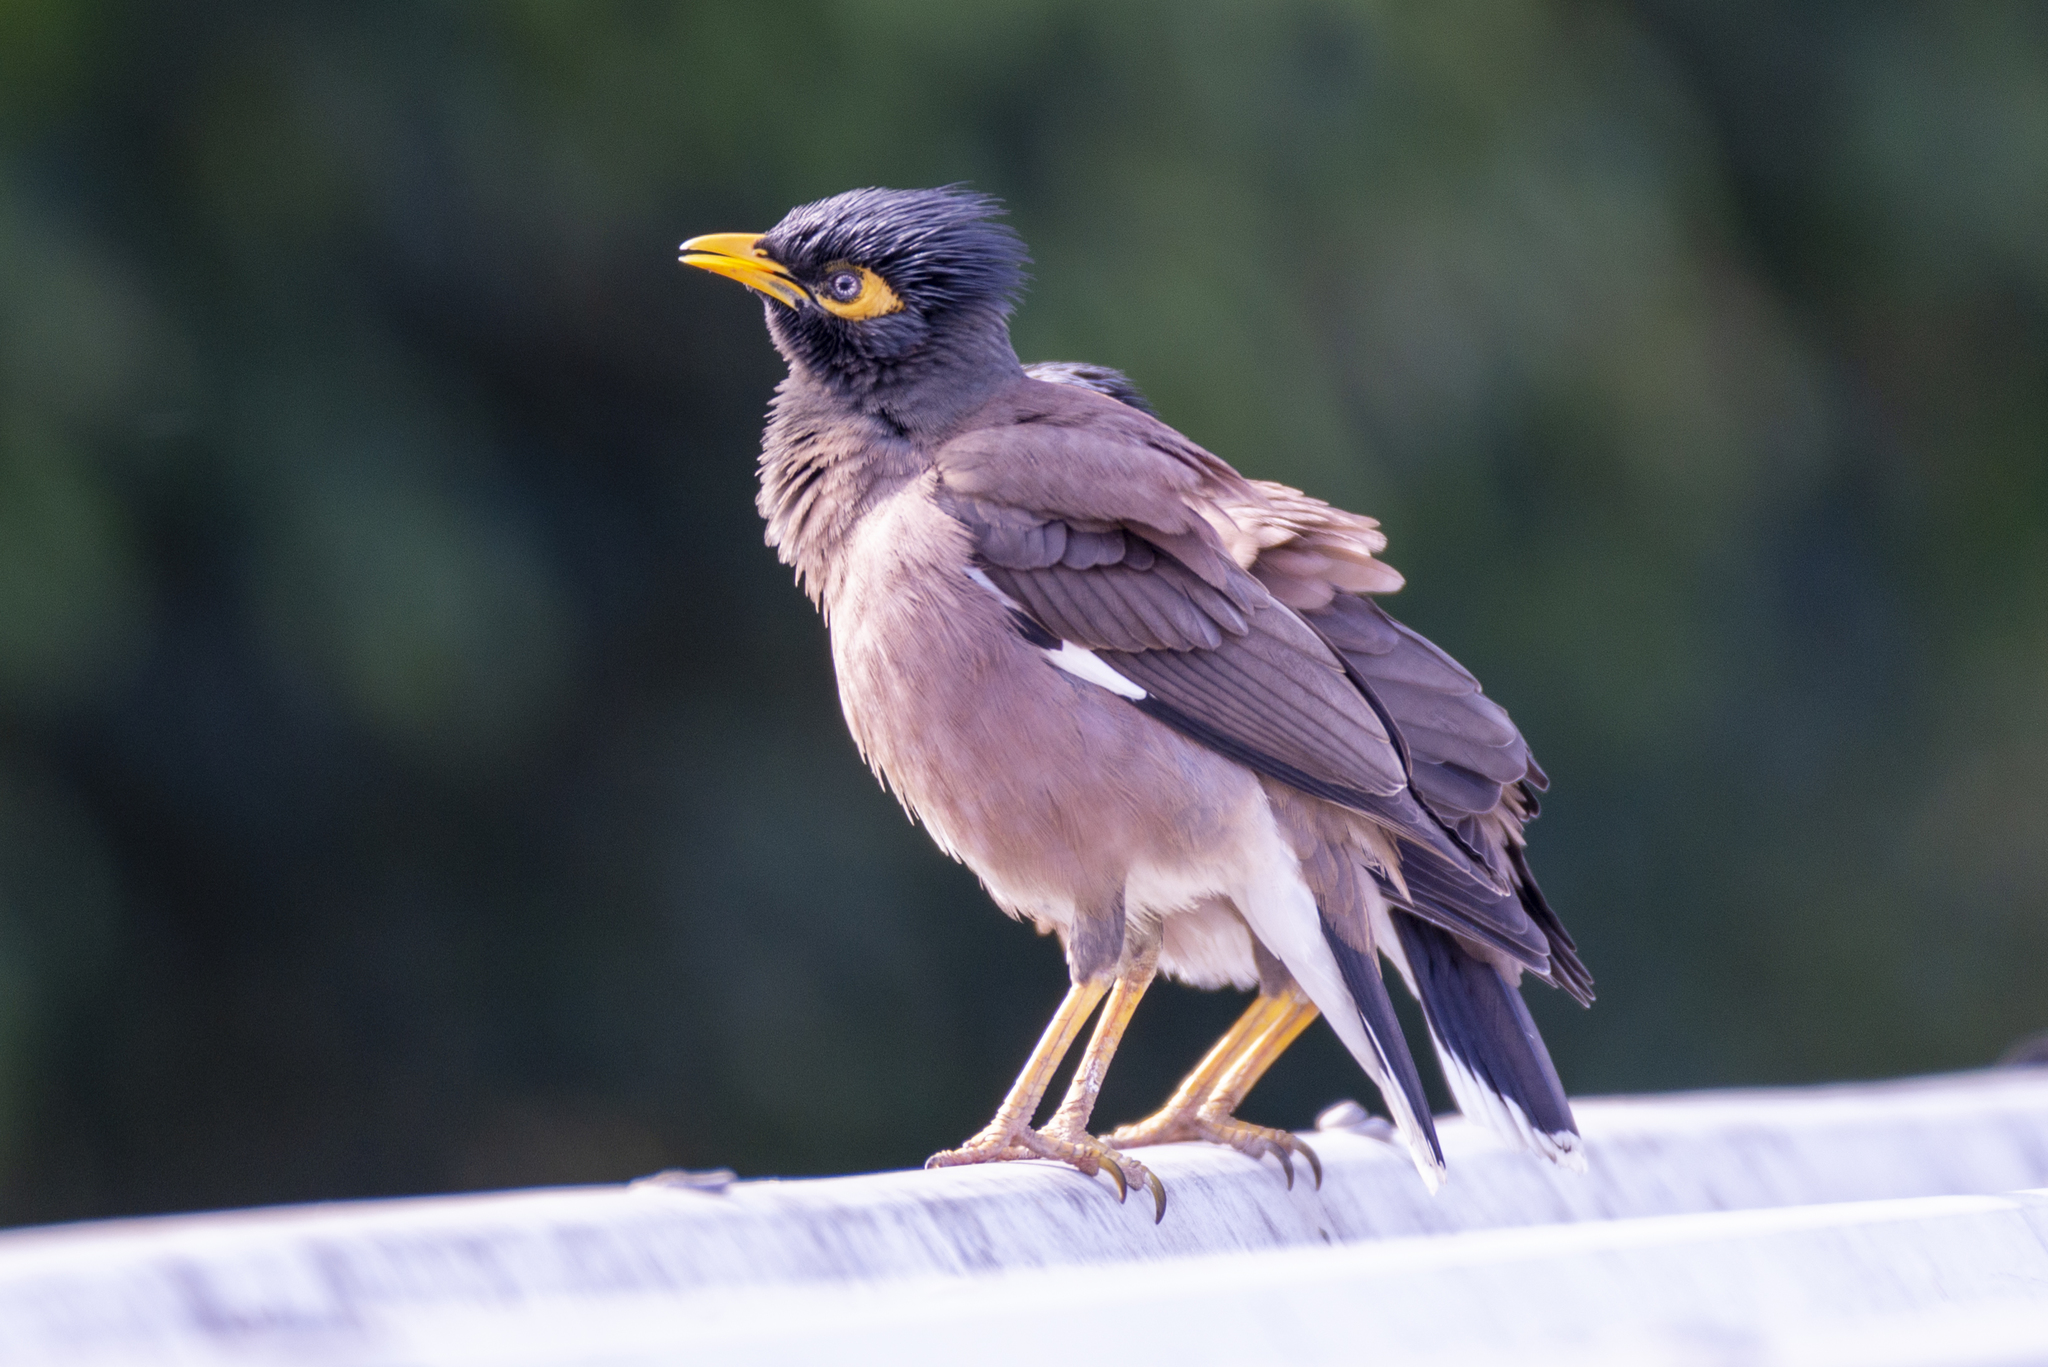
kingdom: Animalia
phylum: Chordata
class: Aves
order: Passeriformes
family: Sturnidae
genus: Acridotheres
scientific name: Acridotheres tristis
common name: Common myna
